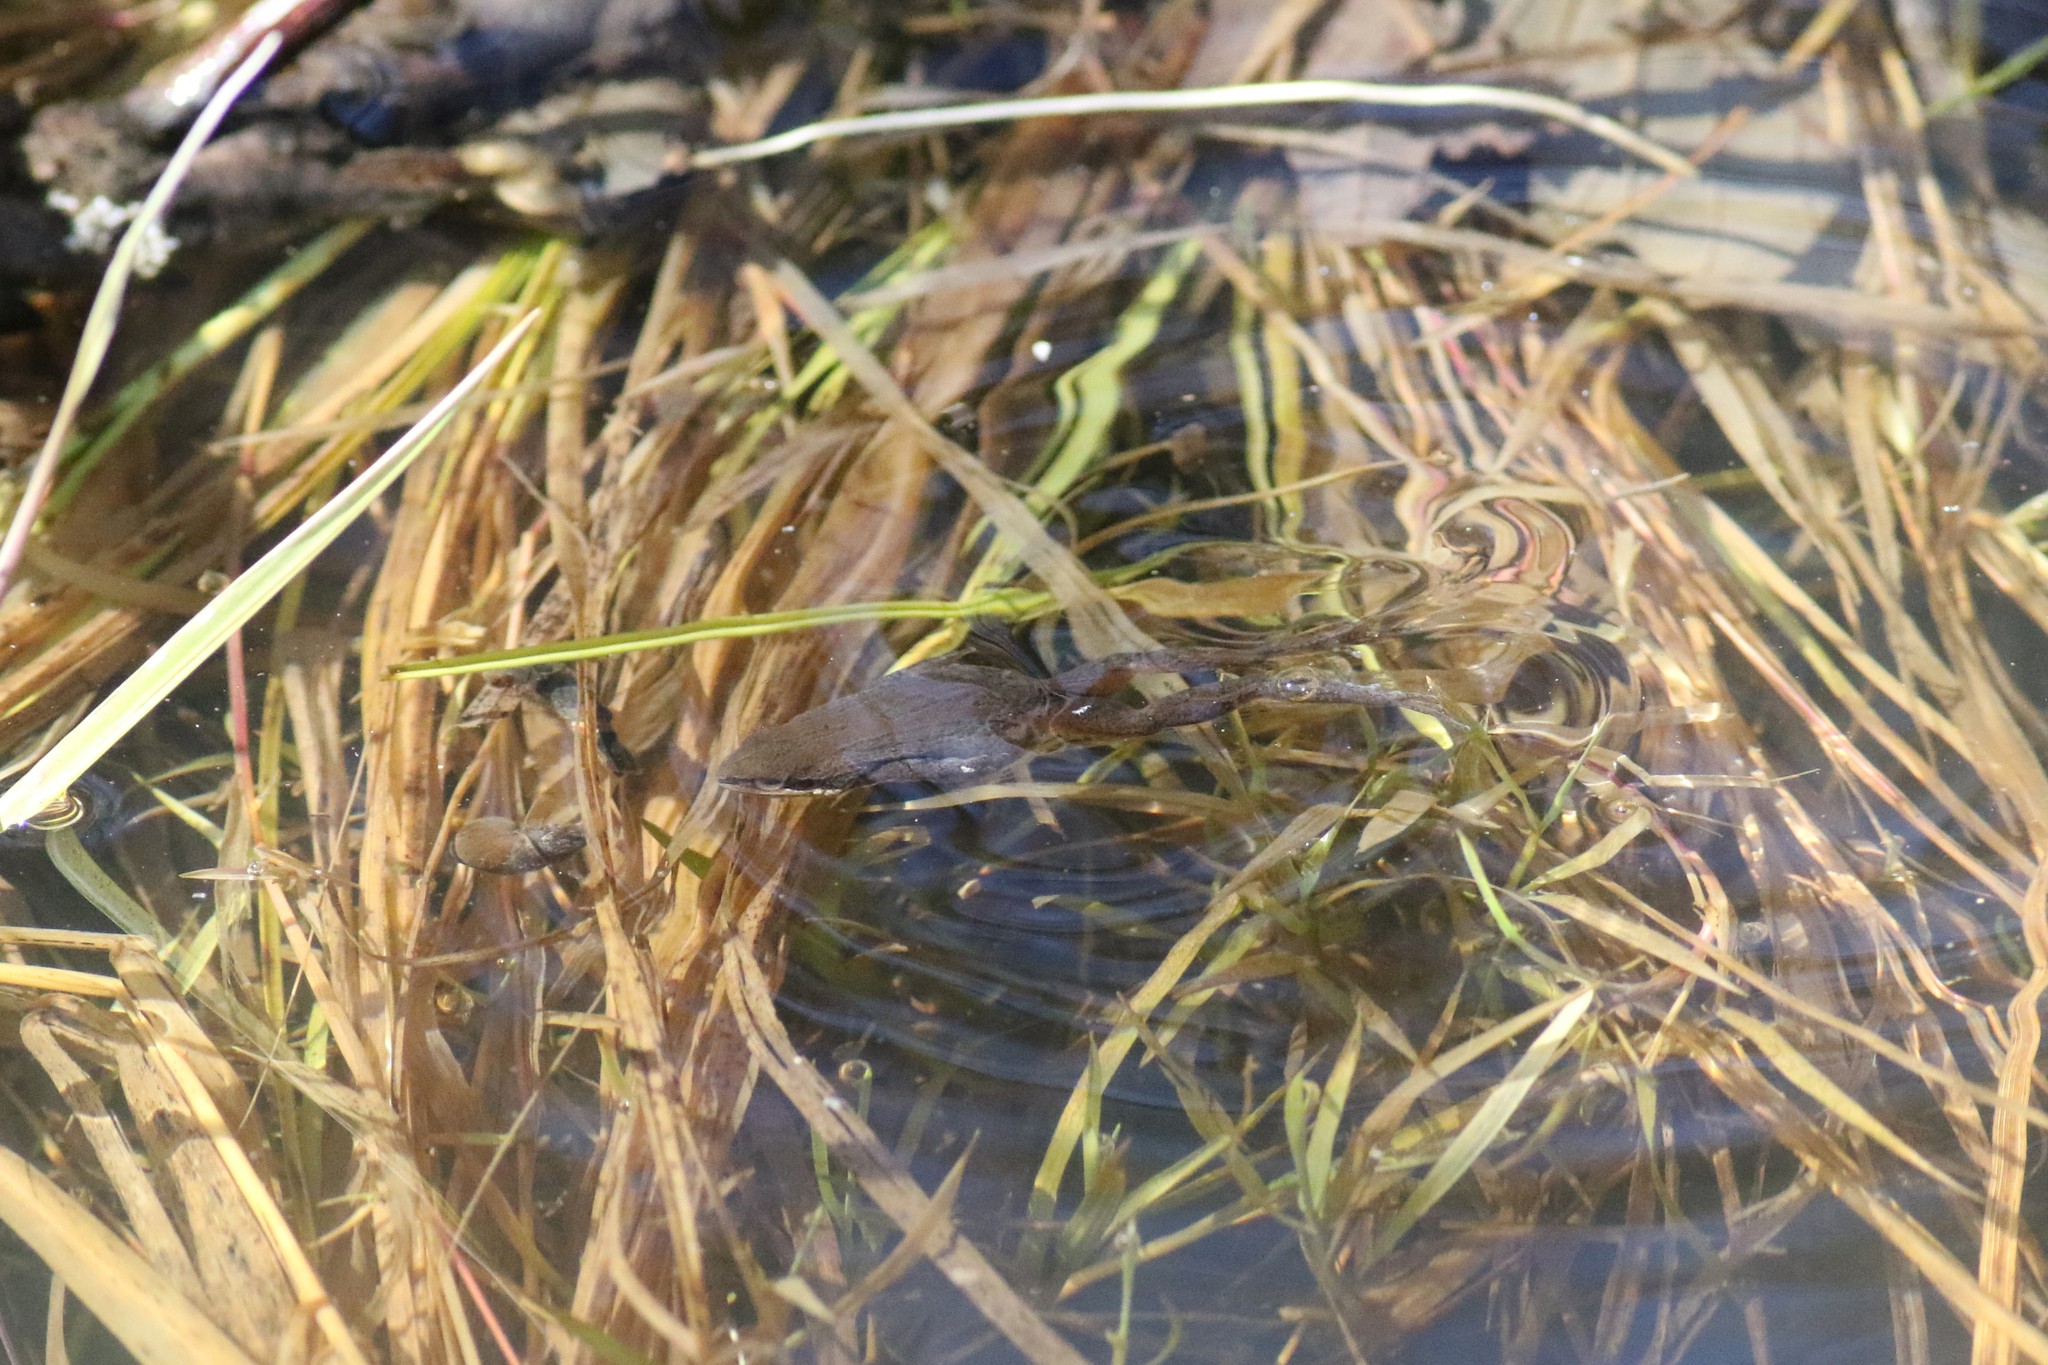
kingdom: Animalia
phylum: Chordata
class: Amphibia
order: Anura
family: Hylidae
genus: Pseudacris
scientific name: Pseudacris triseriata
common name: Western chorus frog
